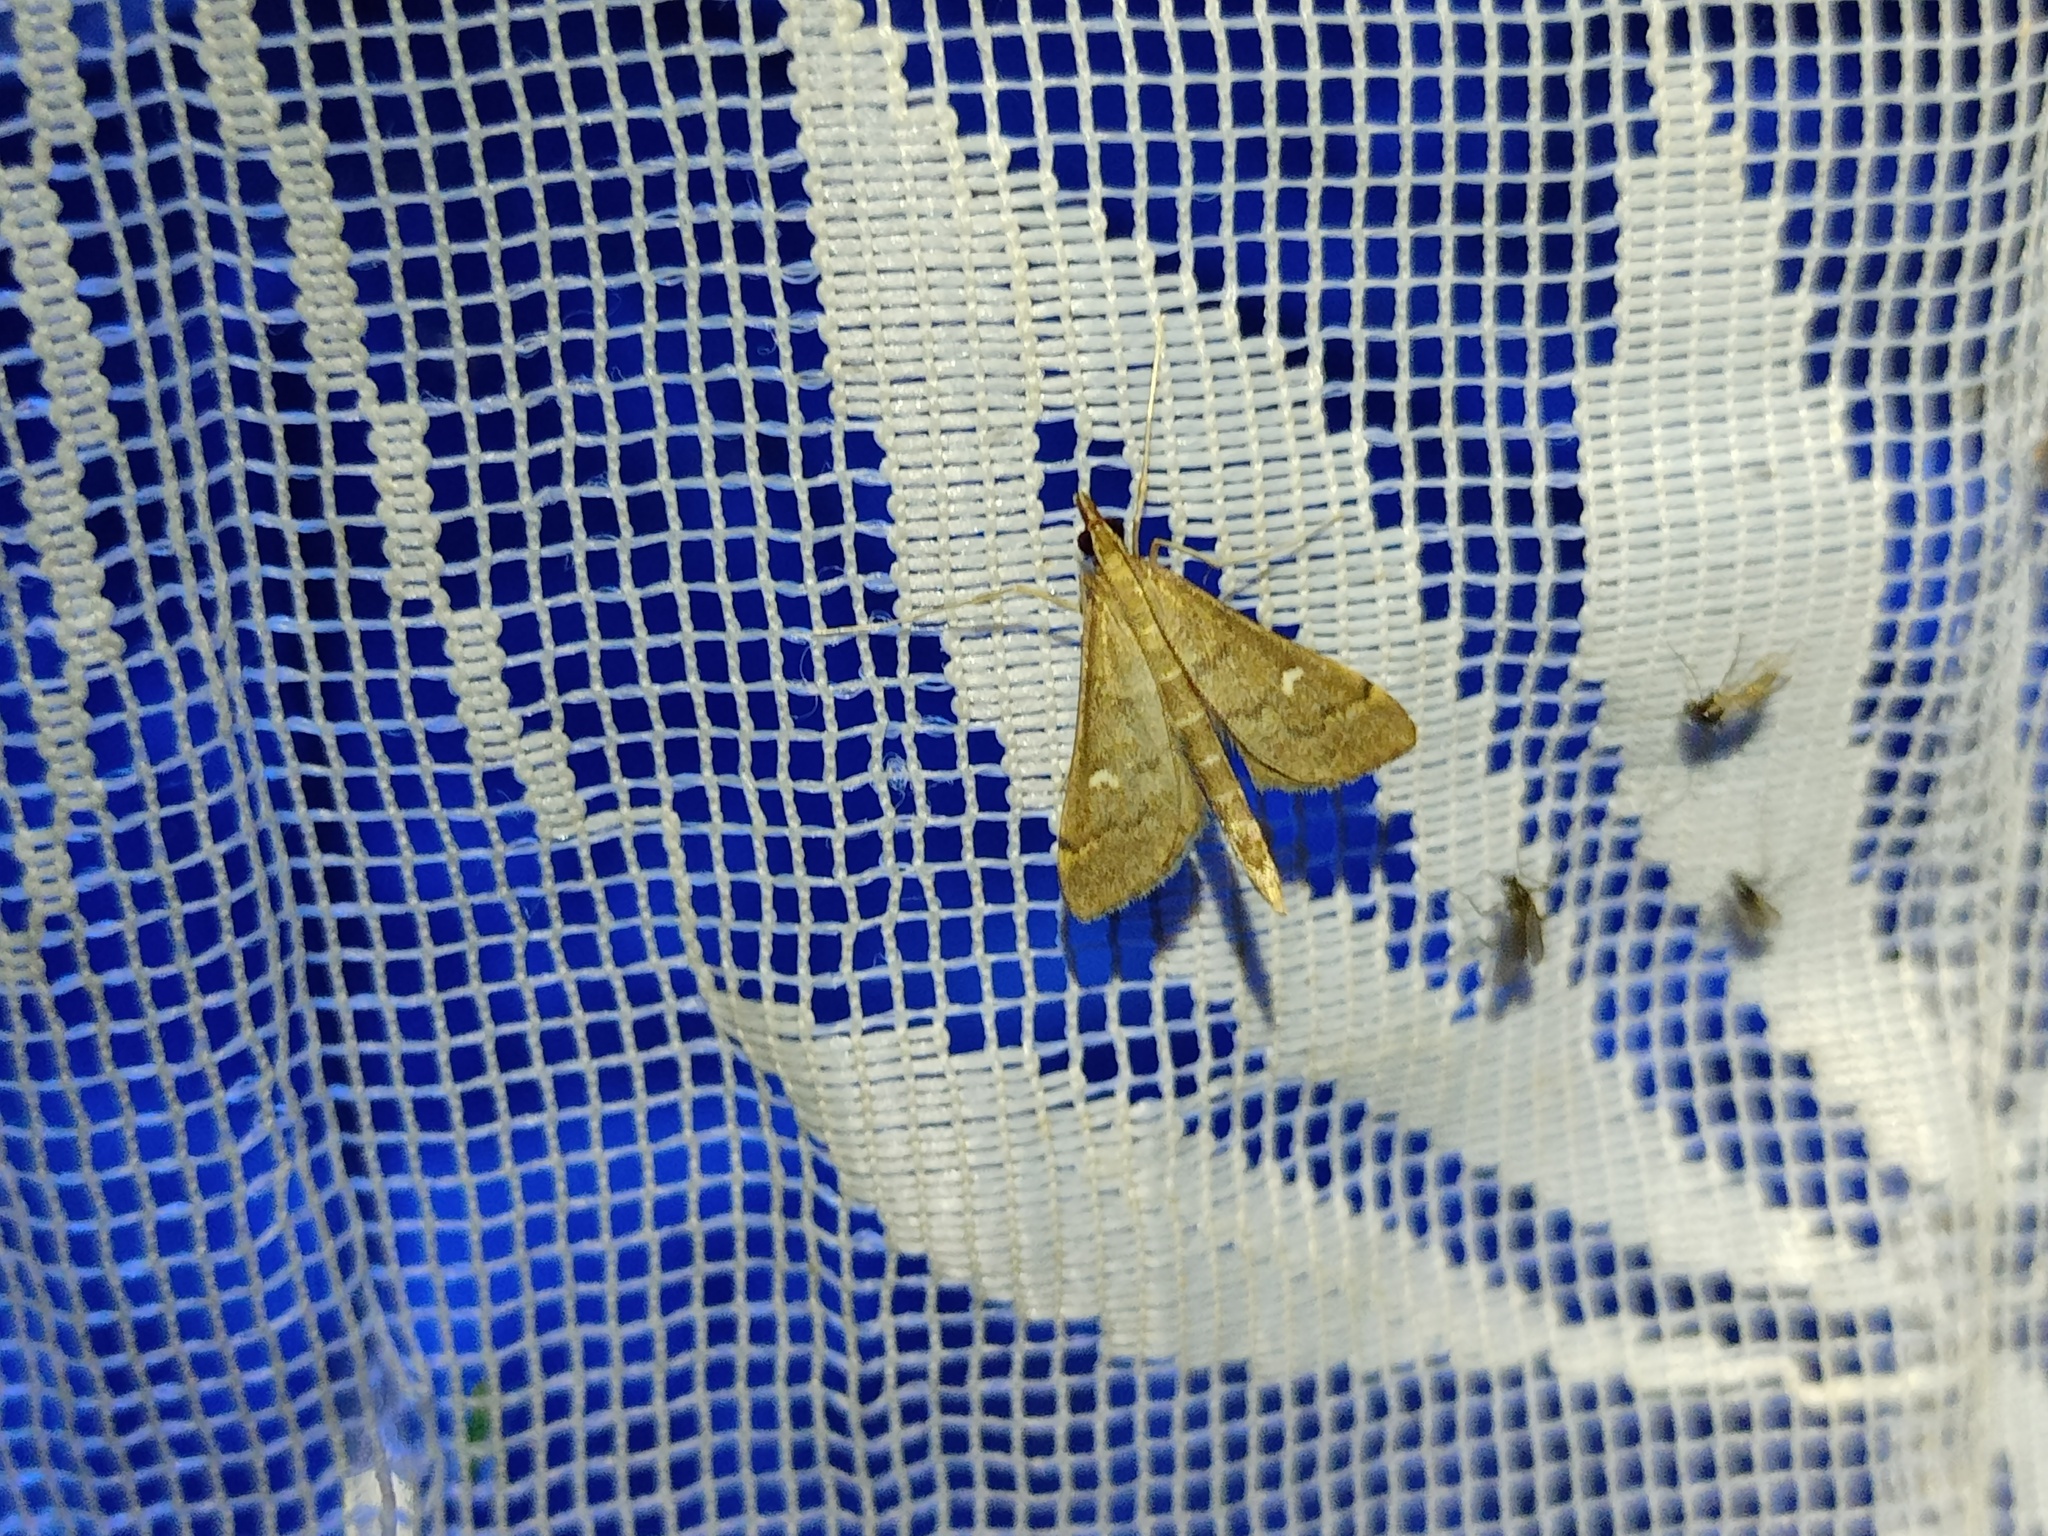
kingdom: Animalia
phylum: Arthropoda
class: Insecta
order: Lepidoptera
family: Crambidae
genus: Stenia
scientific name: Stenia Dolicharthria punctalis
